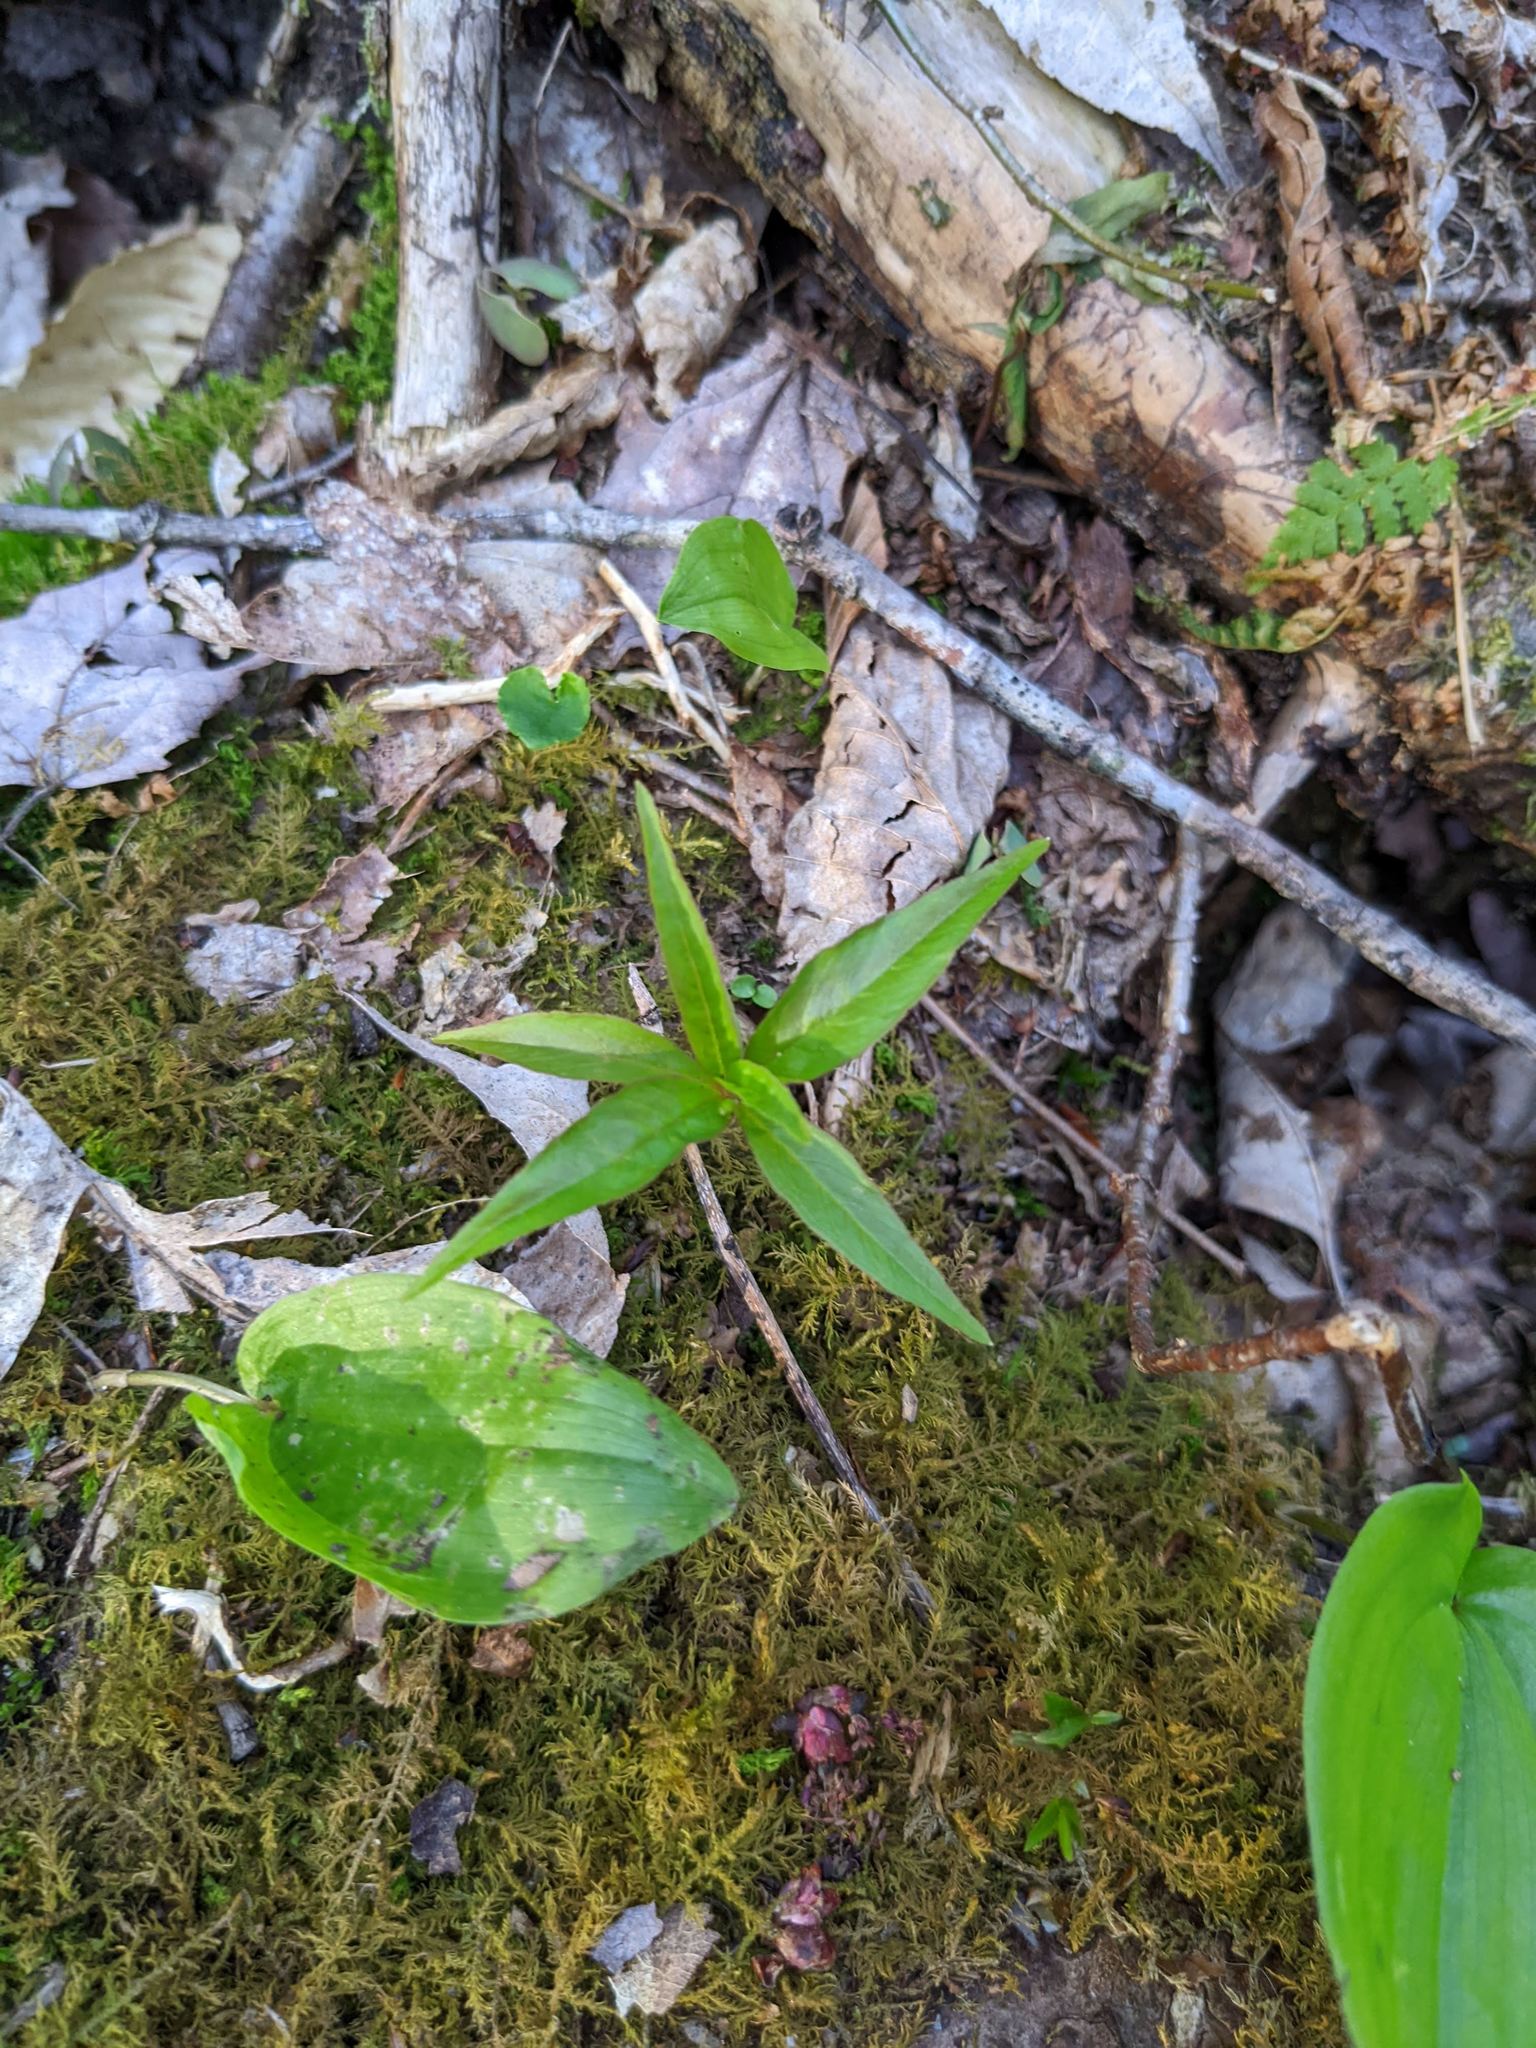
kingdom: Plantae
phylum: Tracheophyta
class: Magnoliopsida
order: Ericales
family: Primulaceae
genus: Lysimachia
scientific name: Lysimachia borealis
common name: American starflower
